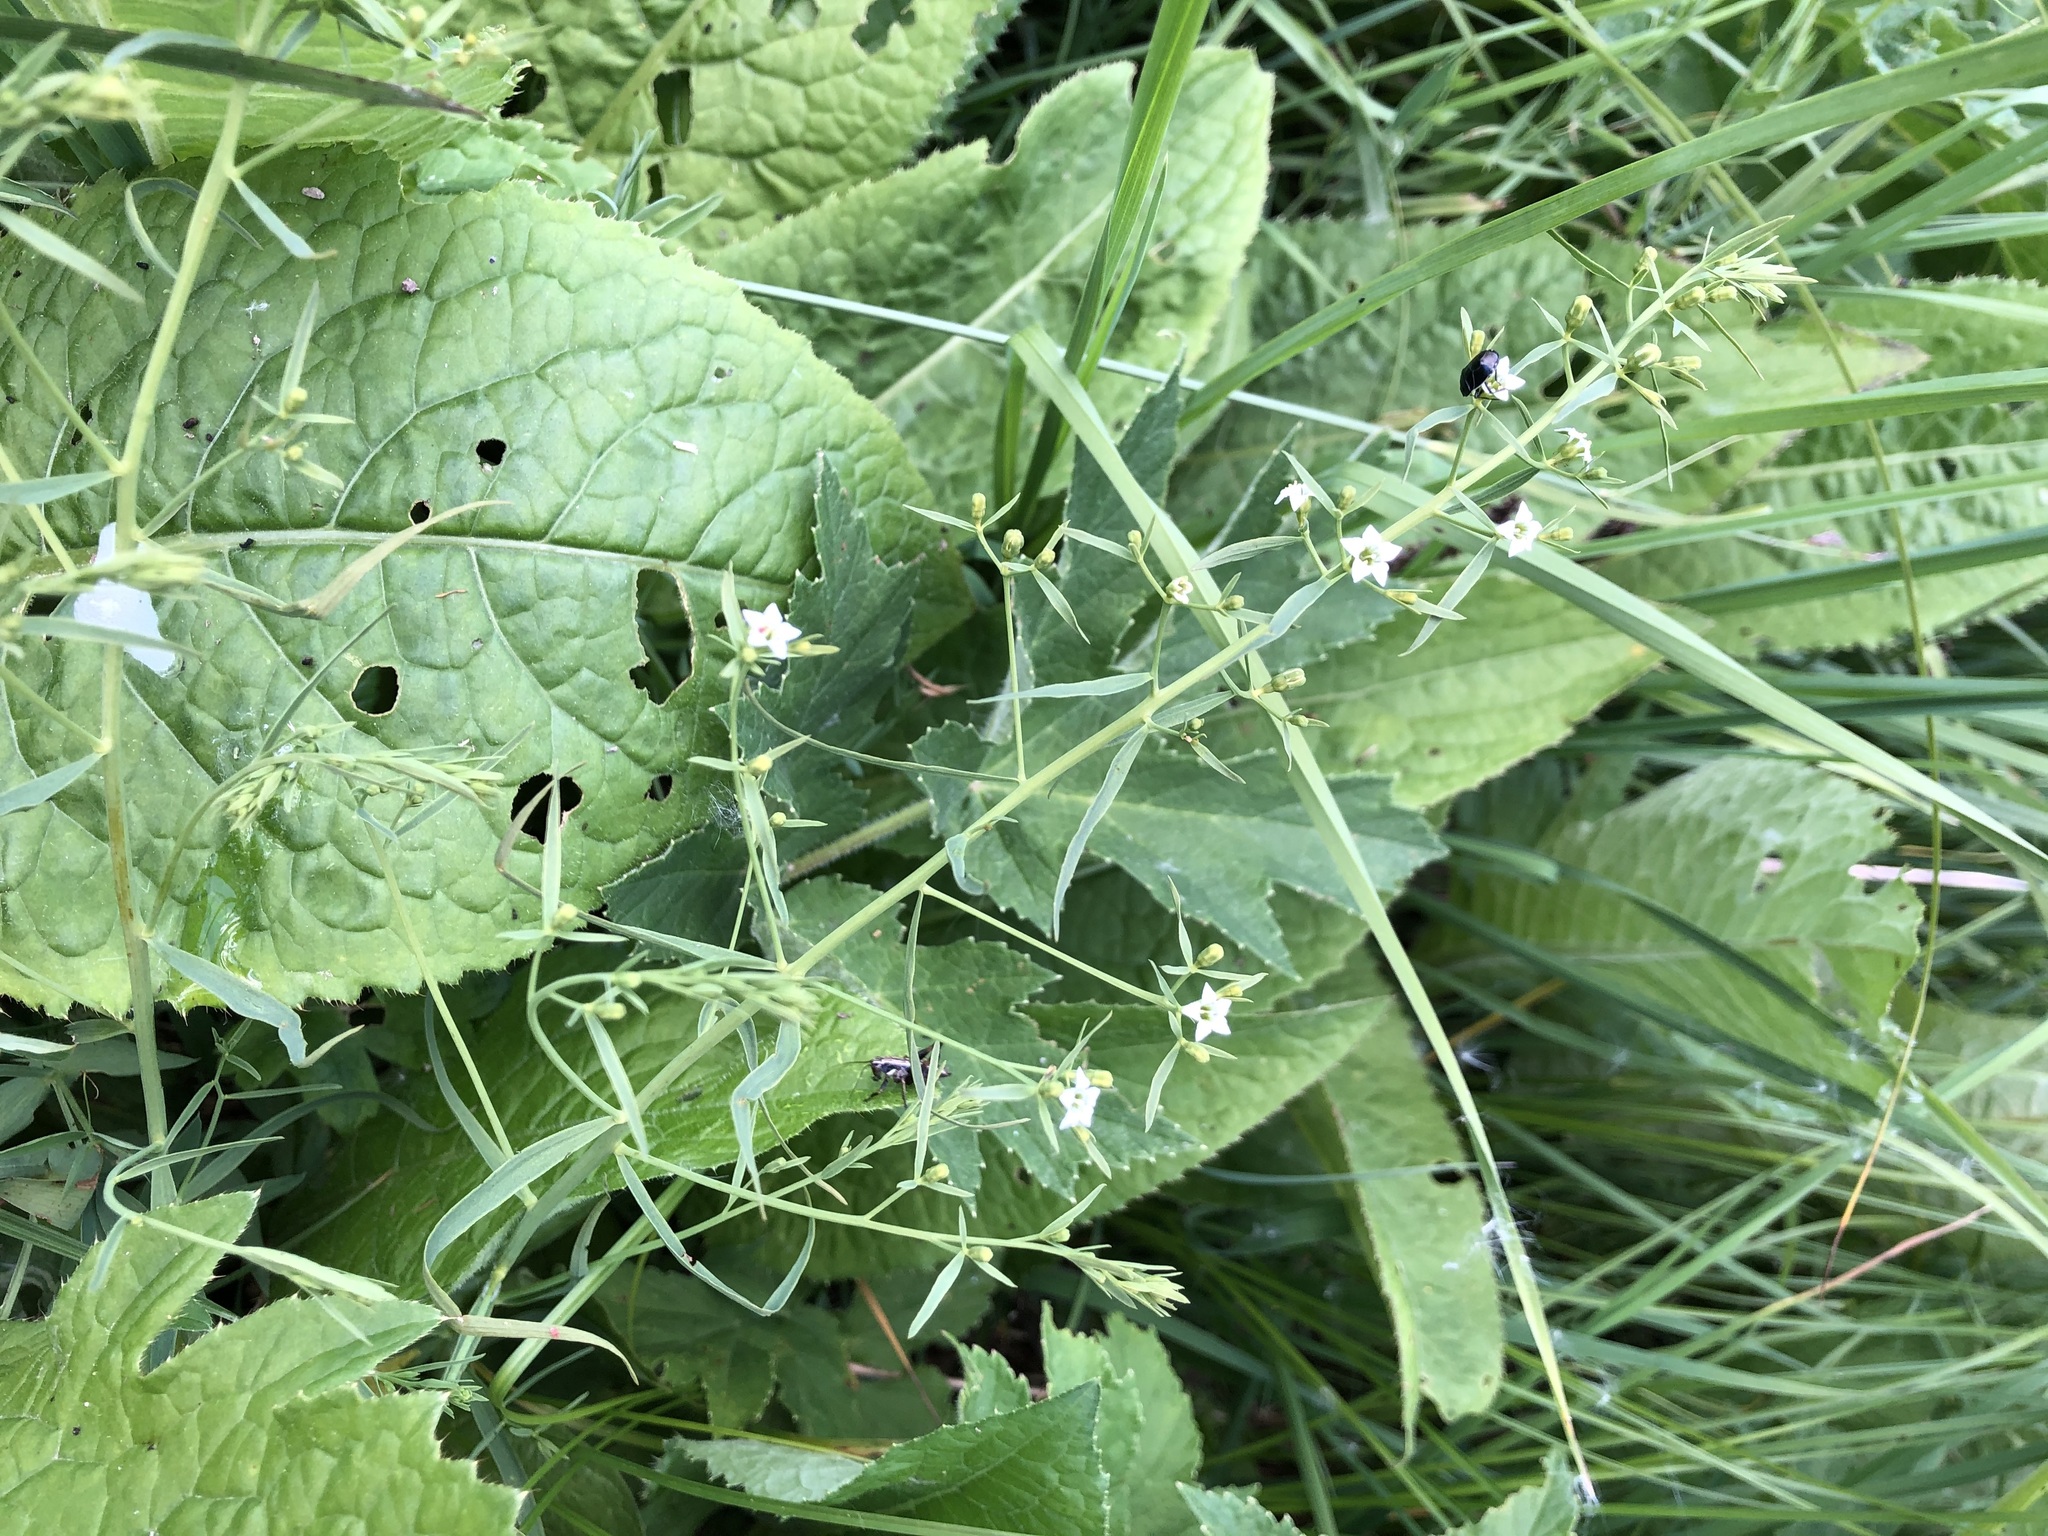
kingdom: Plantae
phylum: Tracheophyta
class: Magnoliopsida
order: Santalales
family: Thesiaceae
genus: Thesium
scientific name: Thesium pyrenaicum
